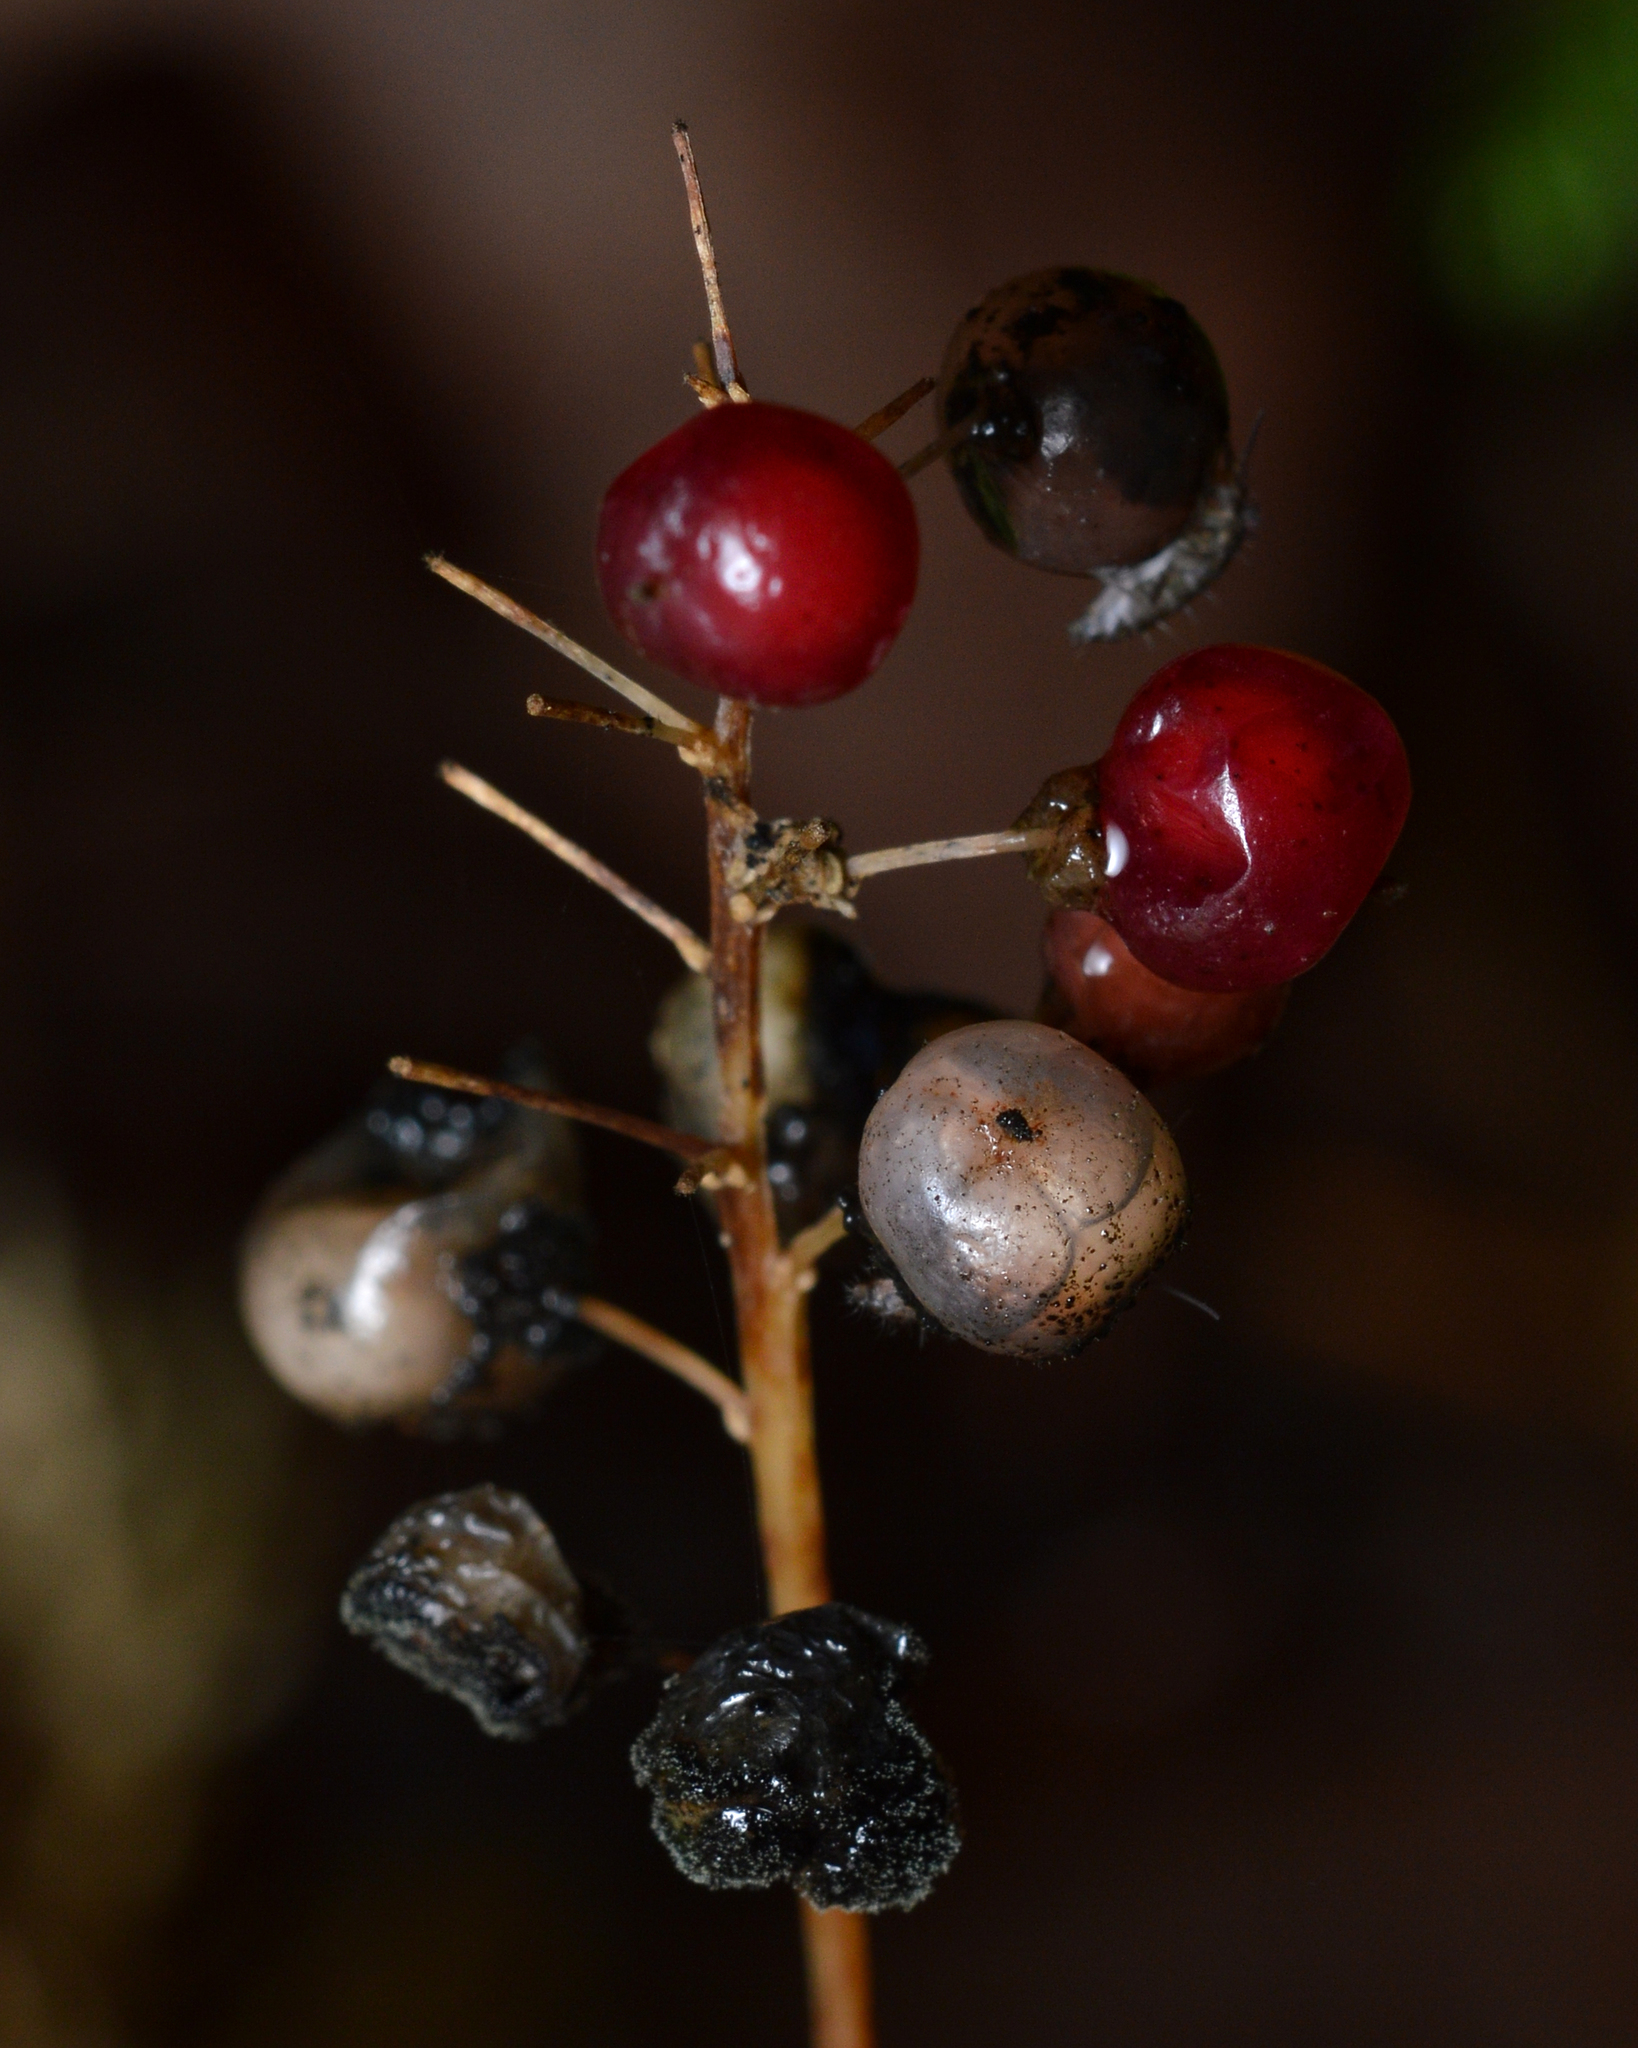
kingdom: Plantae
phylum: Tracheophyta
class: Liliopsida
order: Asparagales
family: Asparagaceae
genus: Maianthemum
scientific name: Maianthemum canadense
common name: False lily-of-the-valley
